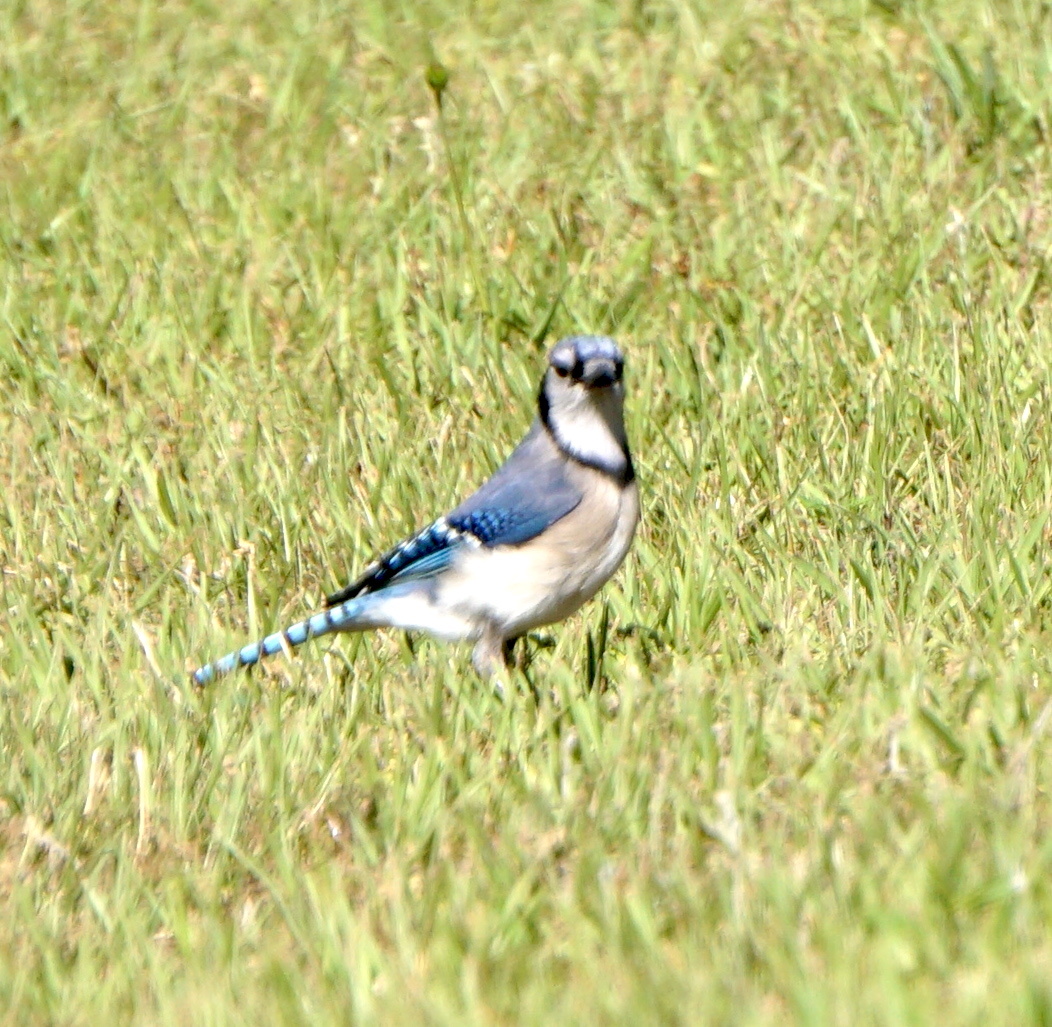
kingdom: Animalia
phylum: Chordata
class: Aves
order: Passeriformes
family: Corvidae
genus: Cyanocitta
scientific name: Cyanocitta cristata
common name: Blue jay
